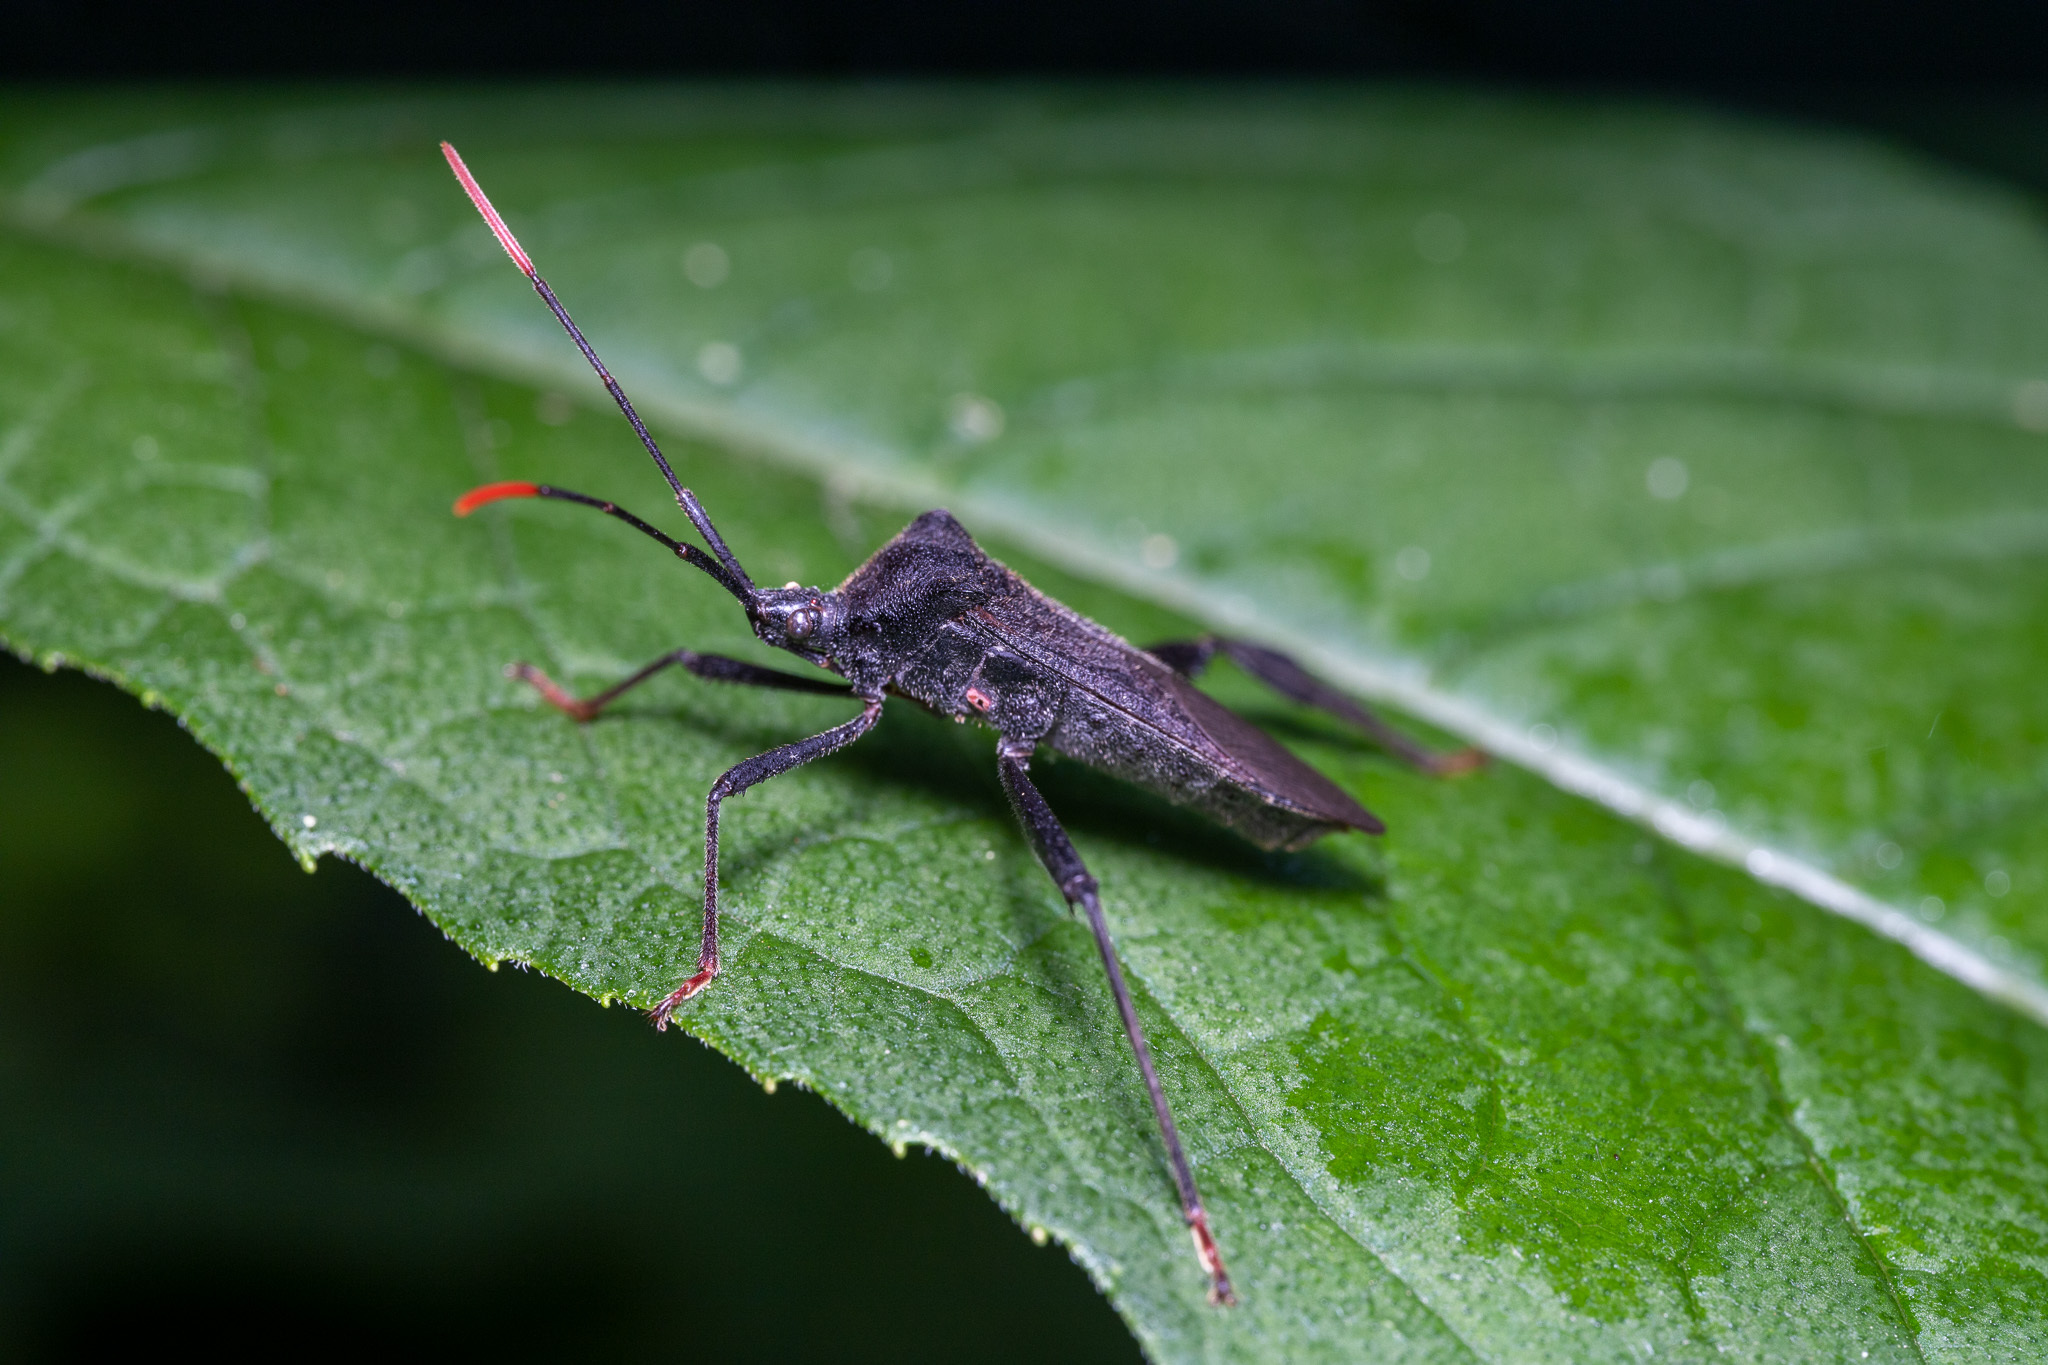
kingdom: Animalia
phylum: Arthropoda
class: Insecta
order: Hemiptera
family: Coreidae
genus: Acanthocephala
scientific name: Acanthocephala terminalis
